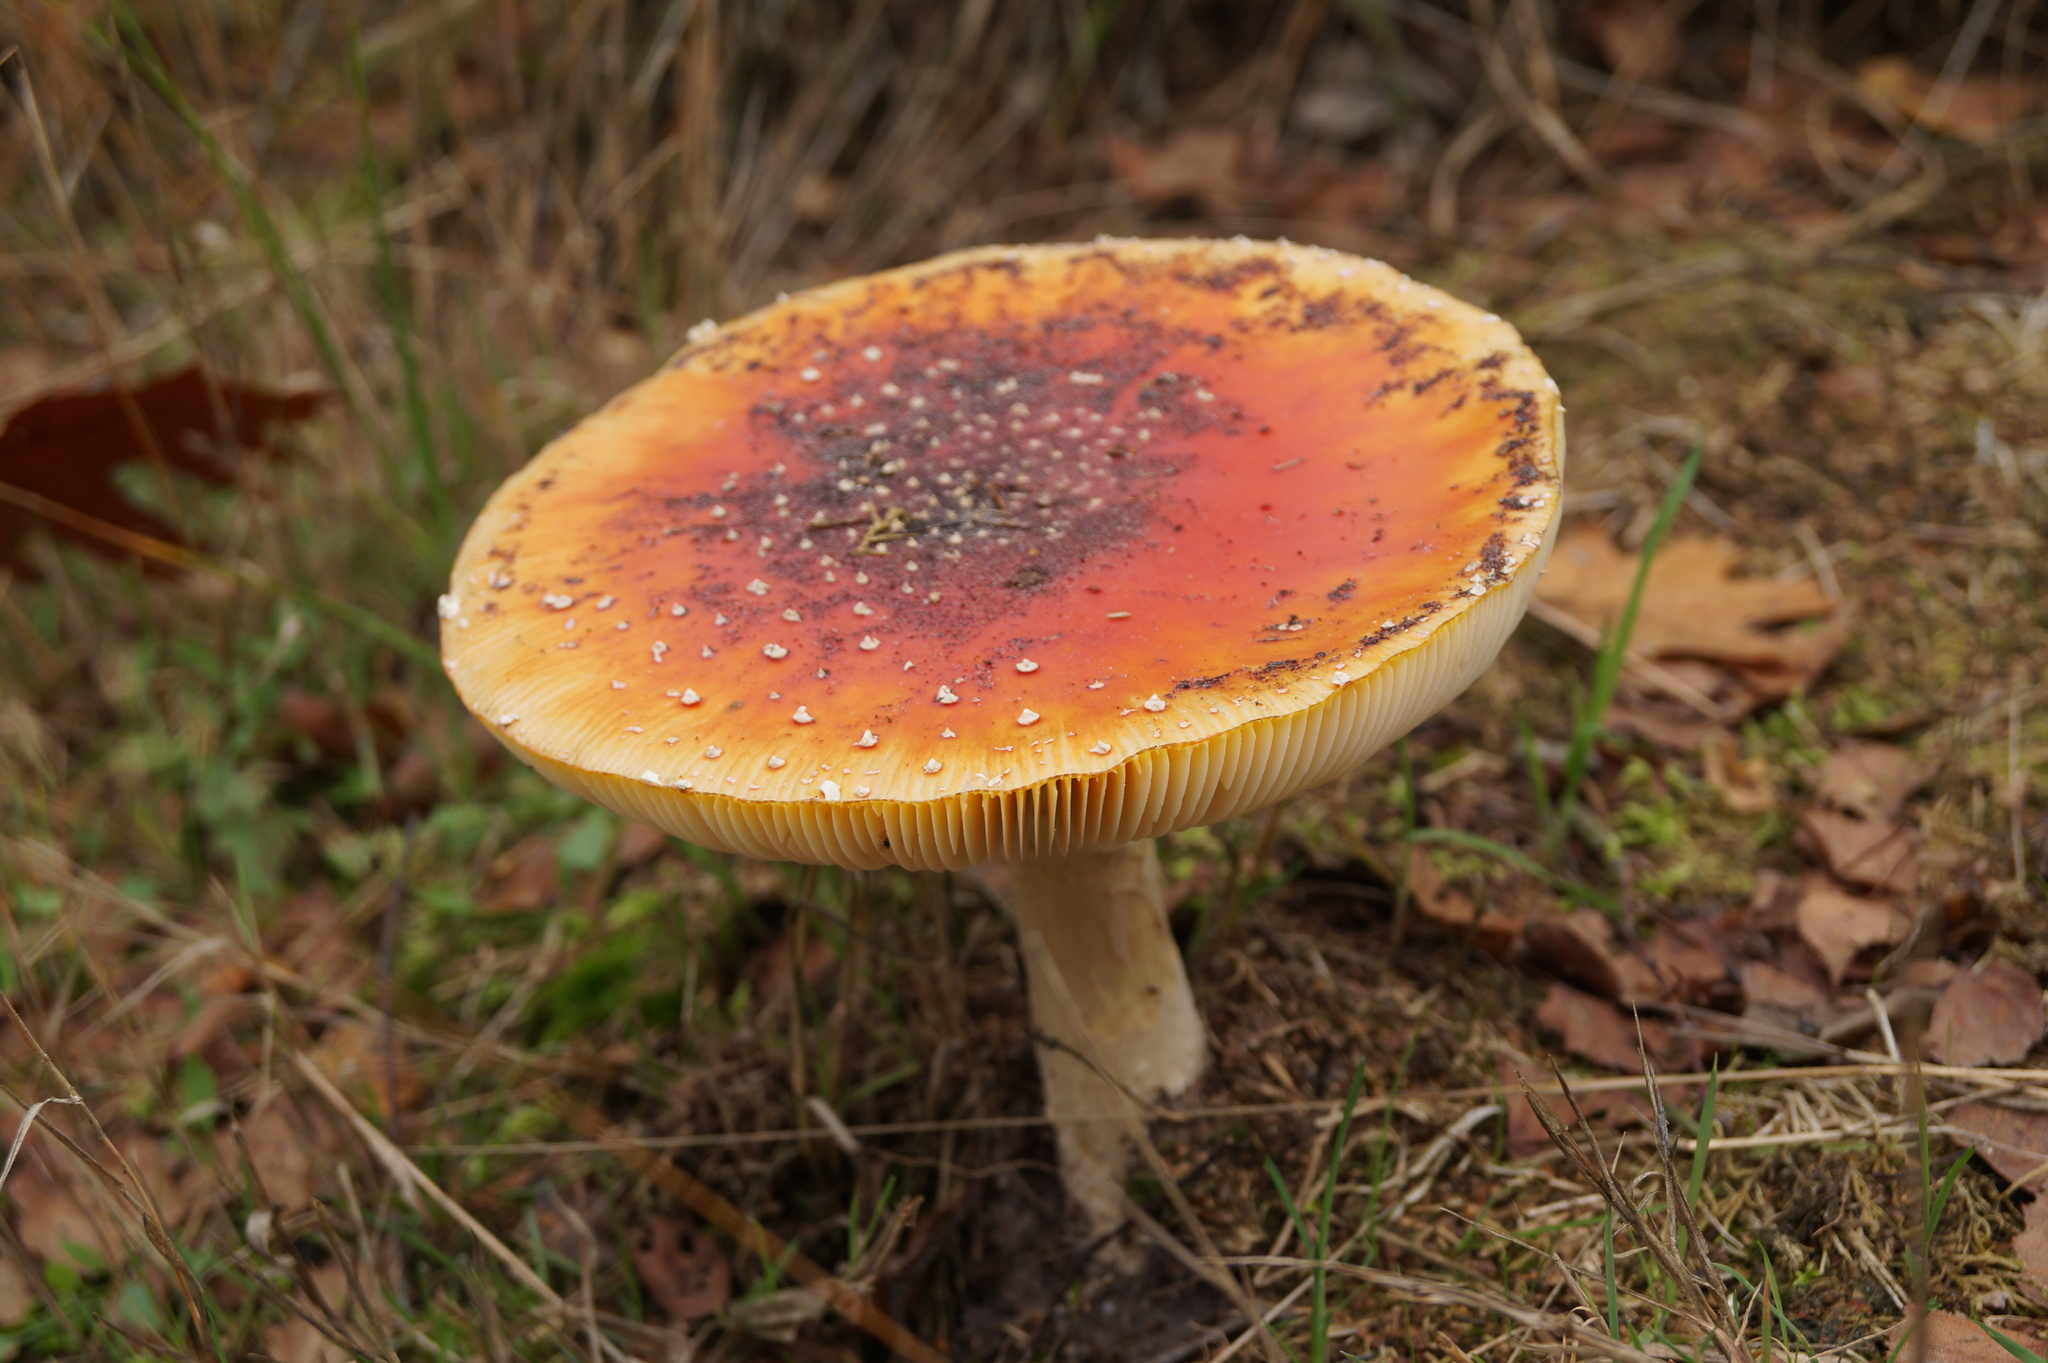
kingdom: Fungi
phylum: Basidiomycota
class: Agaricomycetes
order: Agaricales
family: Amanitaceae
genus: Amanita
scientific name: Amanita muscaria
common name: Fly agaric
